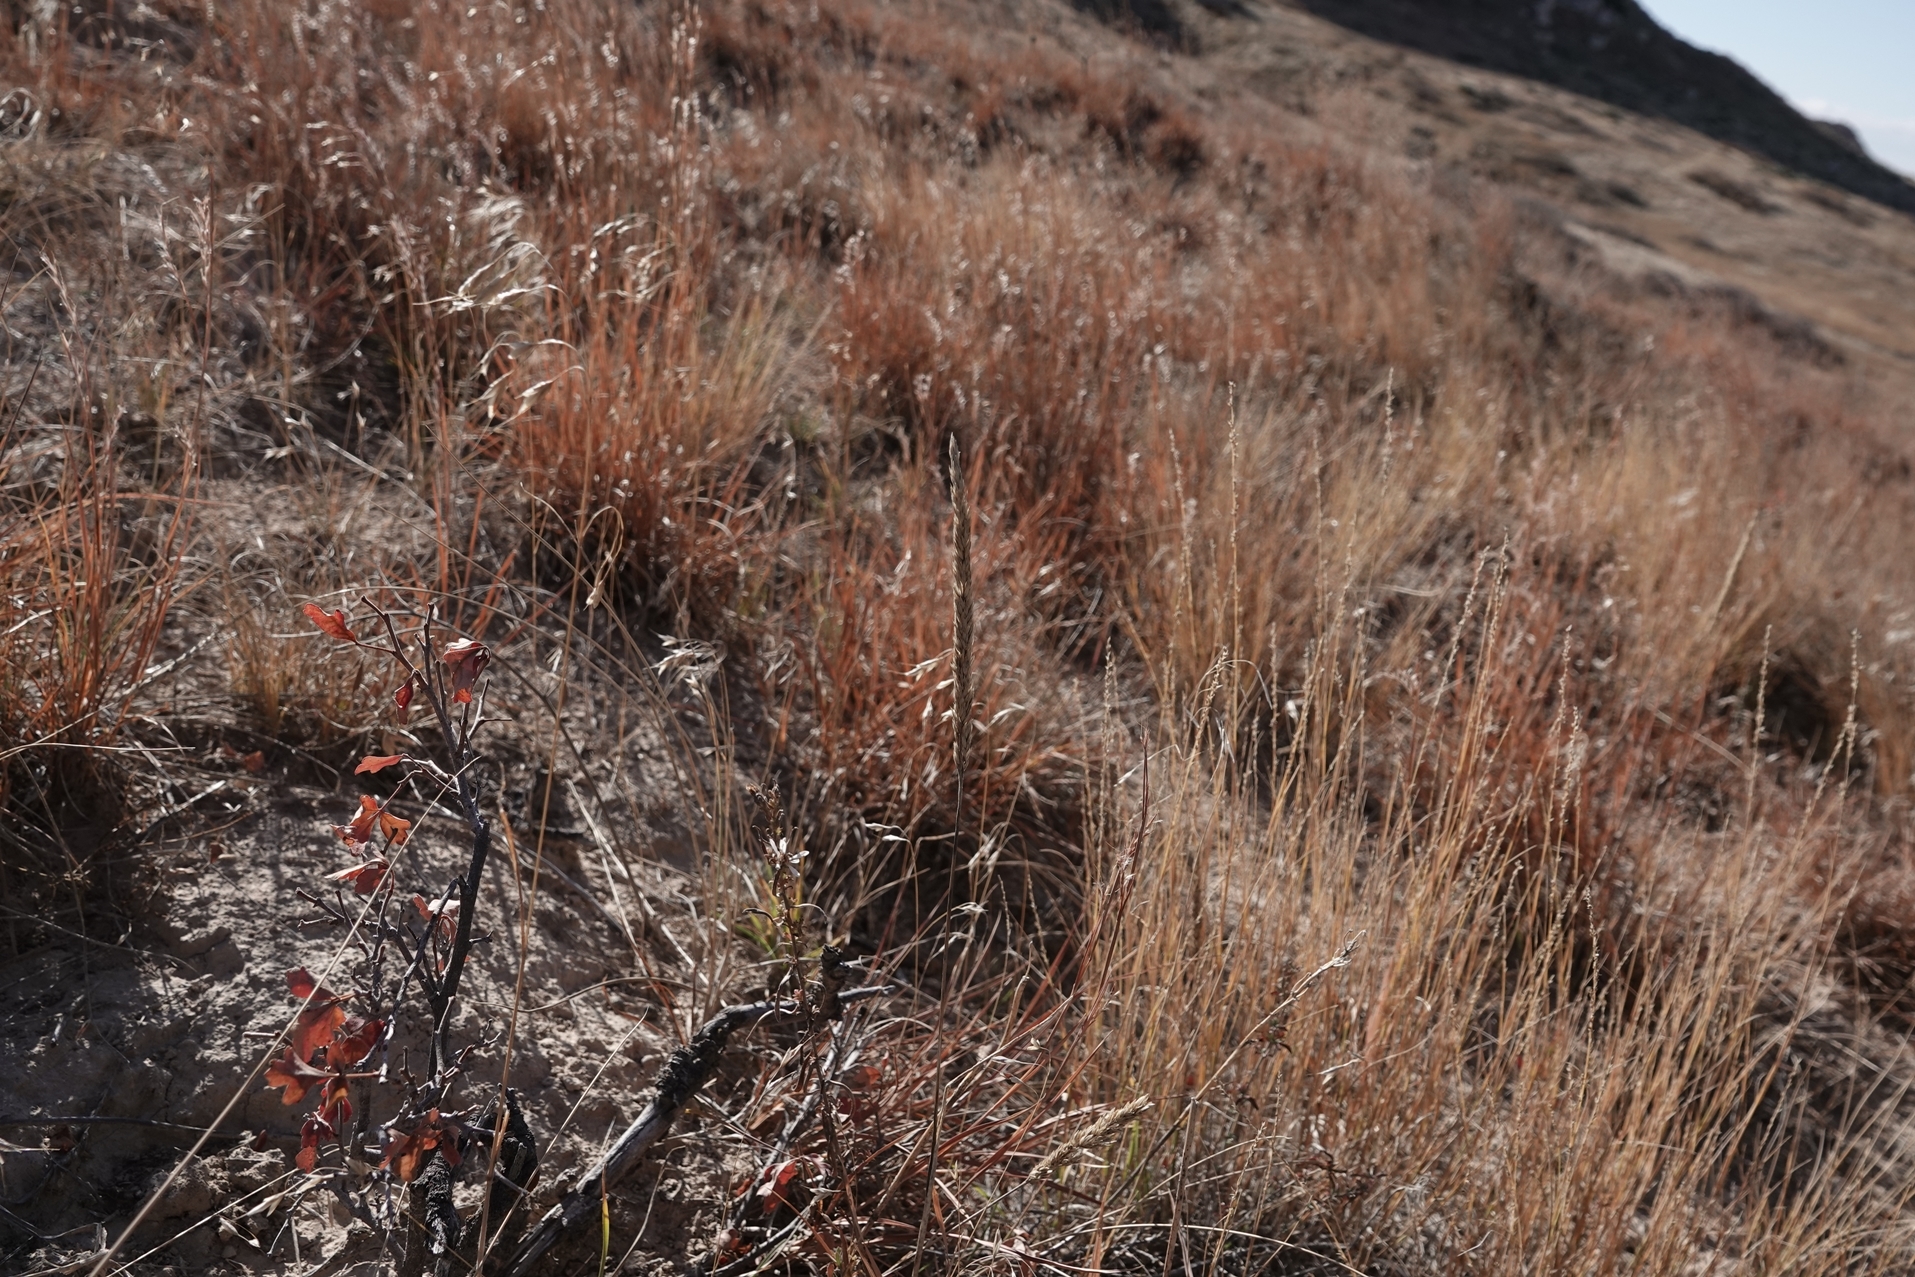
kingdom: Plantae
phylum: Tracheophyta
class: Liliopsida
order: Poales
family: Poaceae
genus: Koeleria
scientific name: Koeleria macrantha
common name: Crested hair-grass
